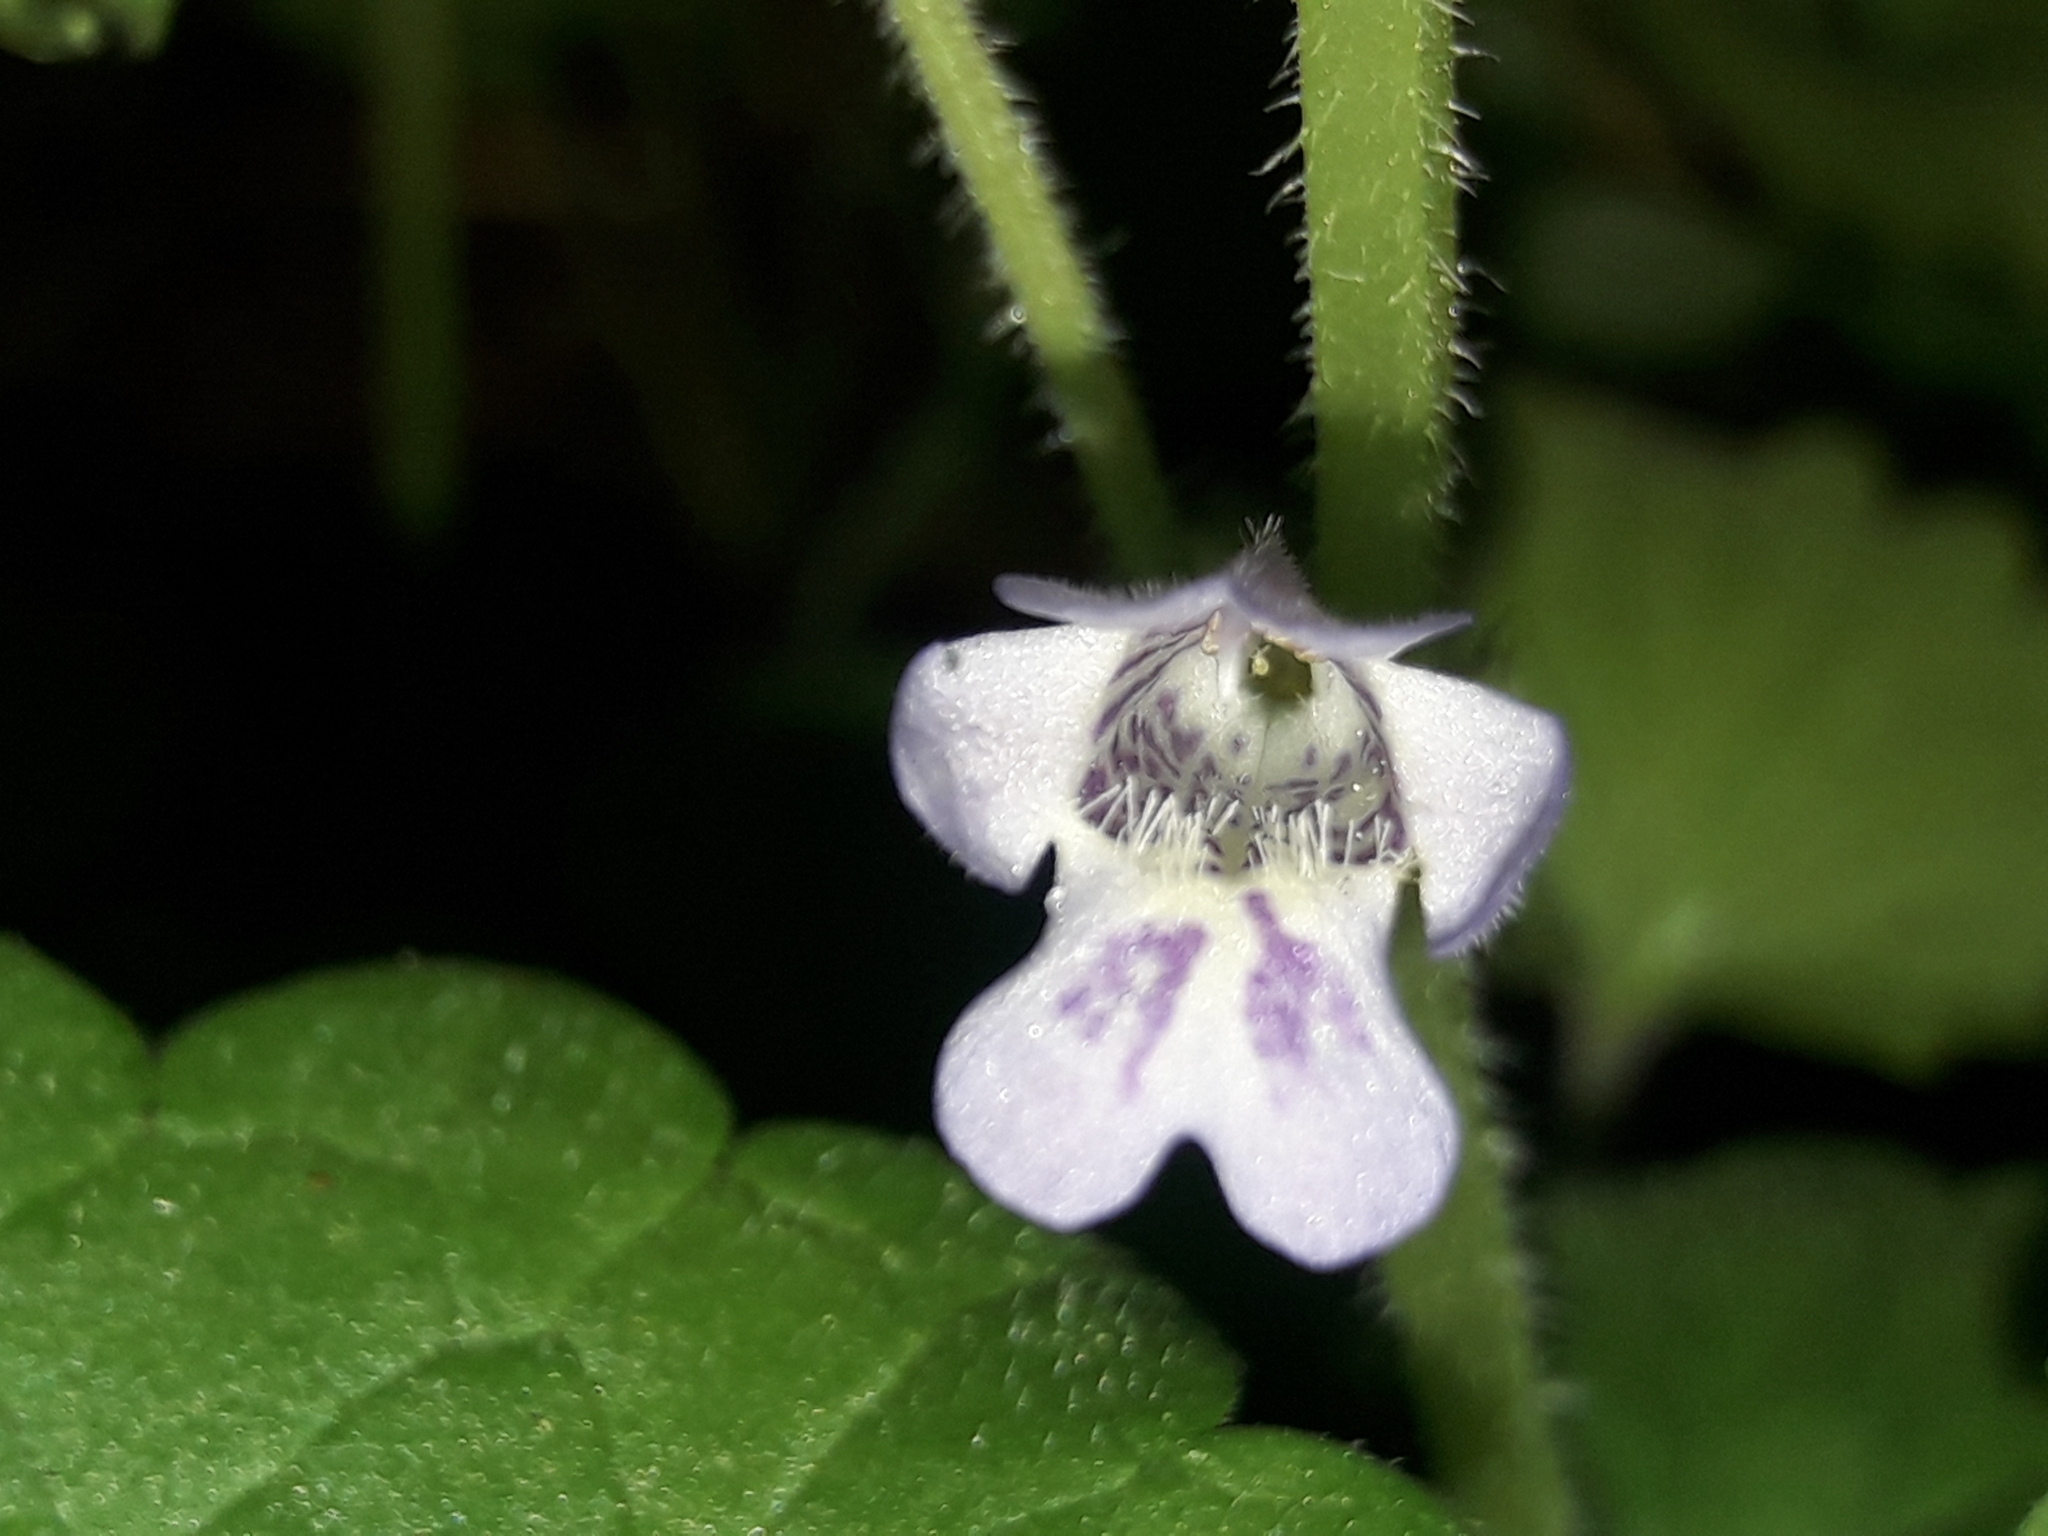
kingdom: Plantae
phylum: Tracheophyta
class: Magnoliopsida
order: Lamiales
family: Lamiaceae
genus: Glechoma
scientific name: Glechoma hederacea
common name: Ground ivy
